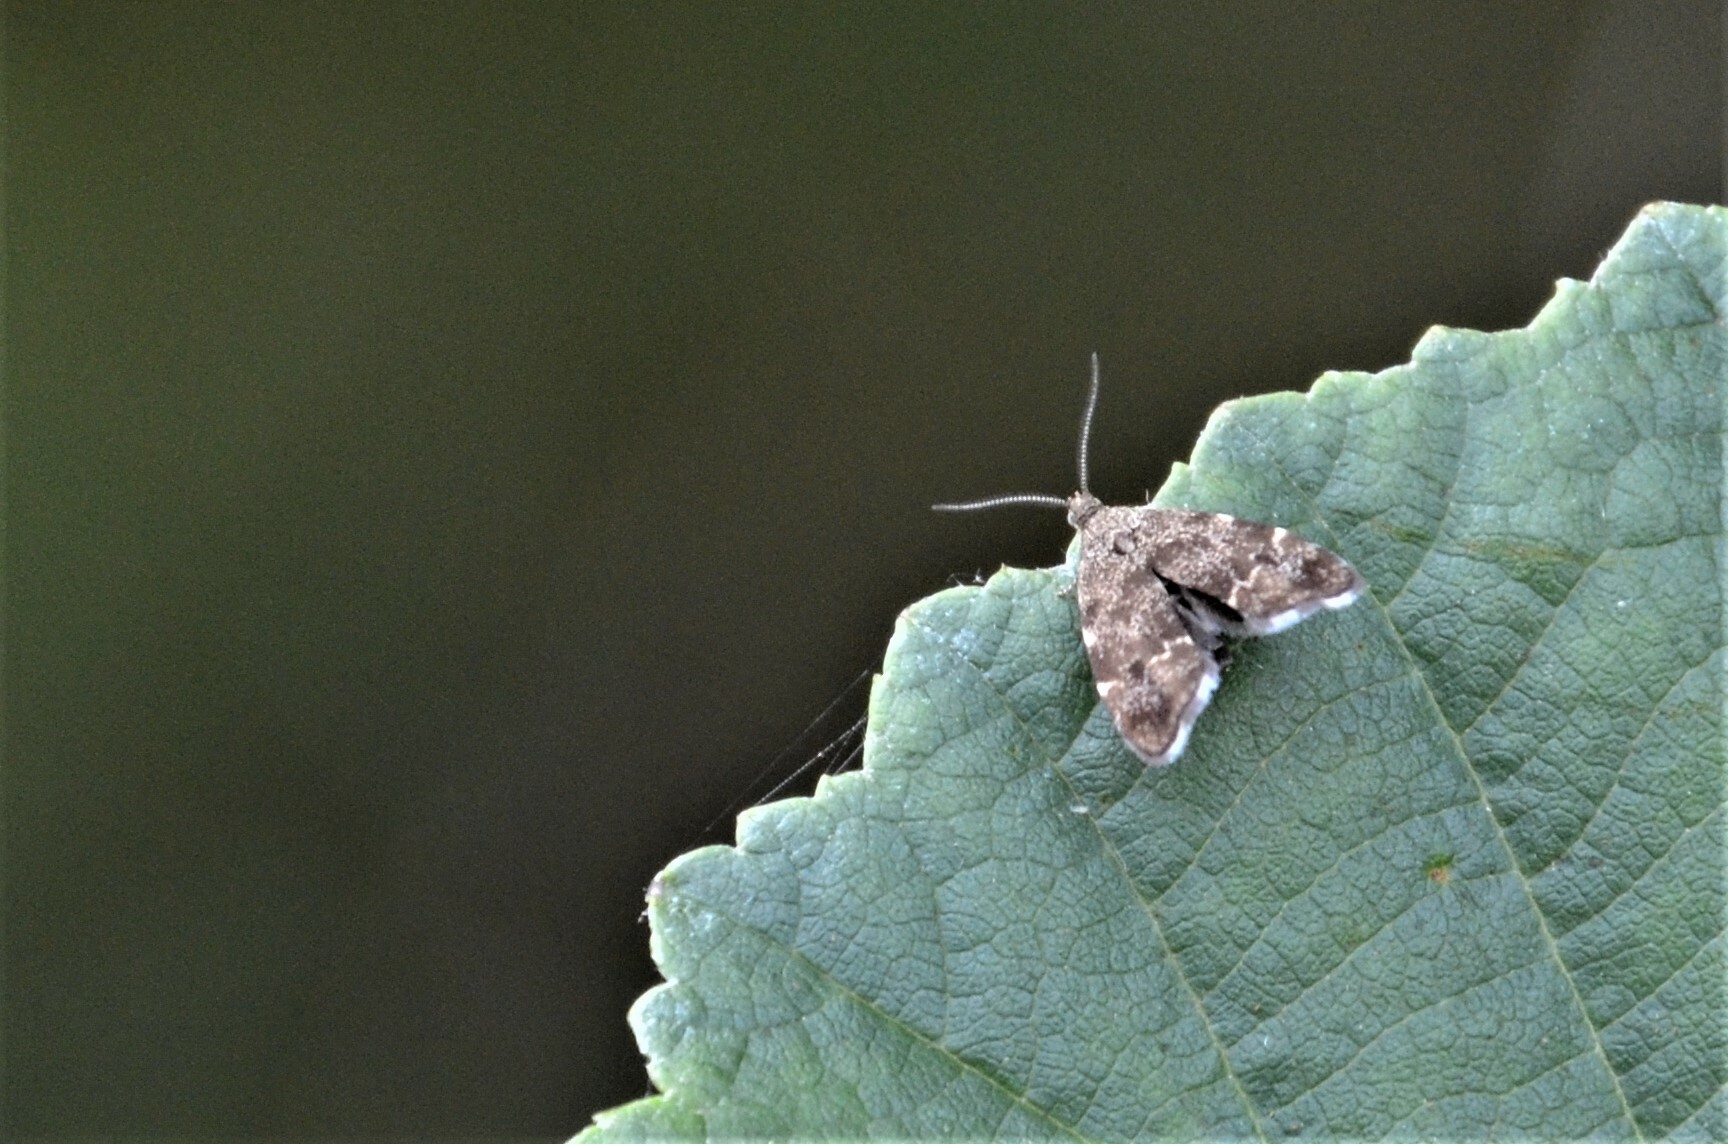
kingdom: Animalia
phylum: Arthropoda
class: Insecta
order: Lepidoptera
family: Choreutidae
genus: Anthophila
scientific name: Anthophila fabriciana
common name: Nettle-tap
